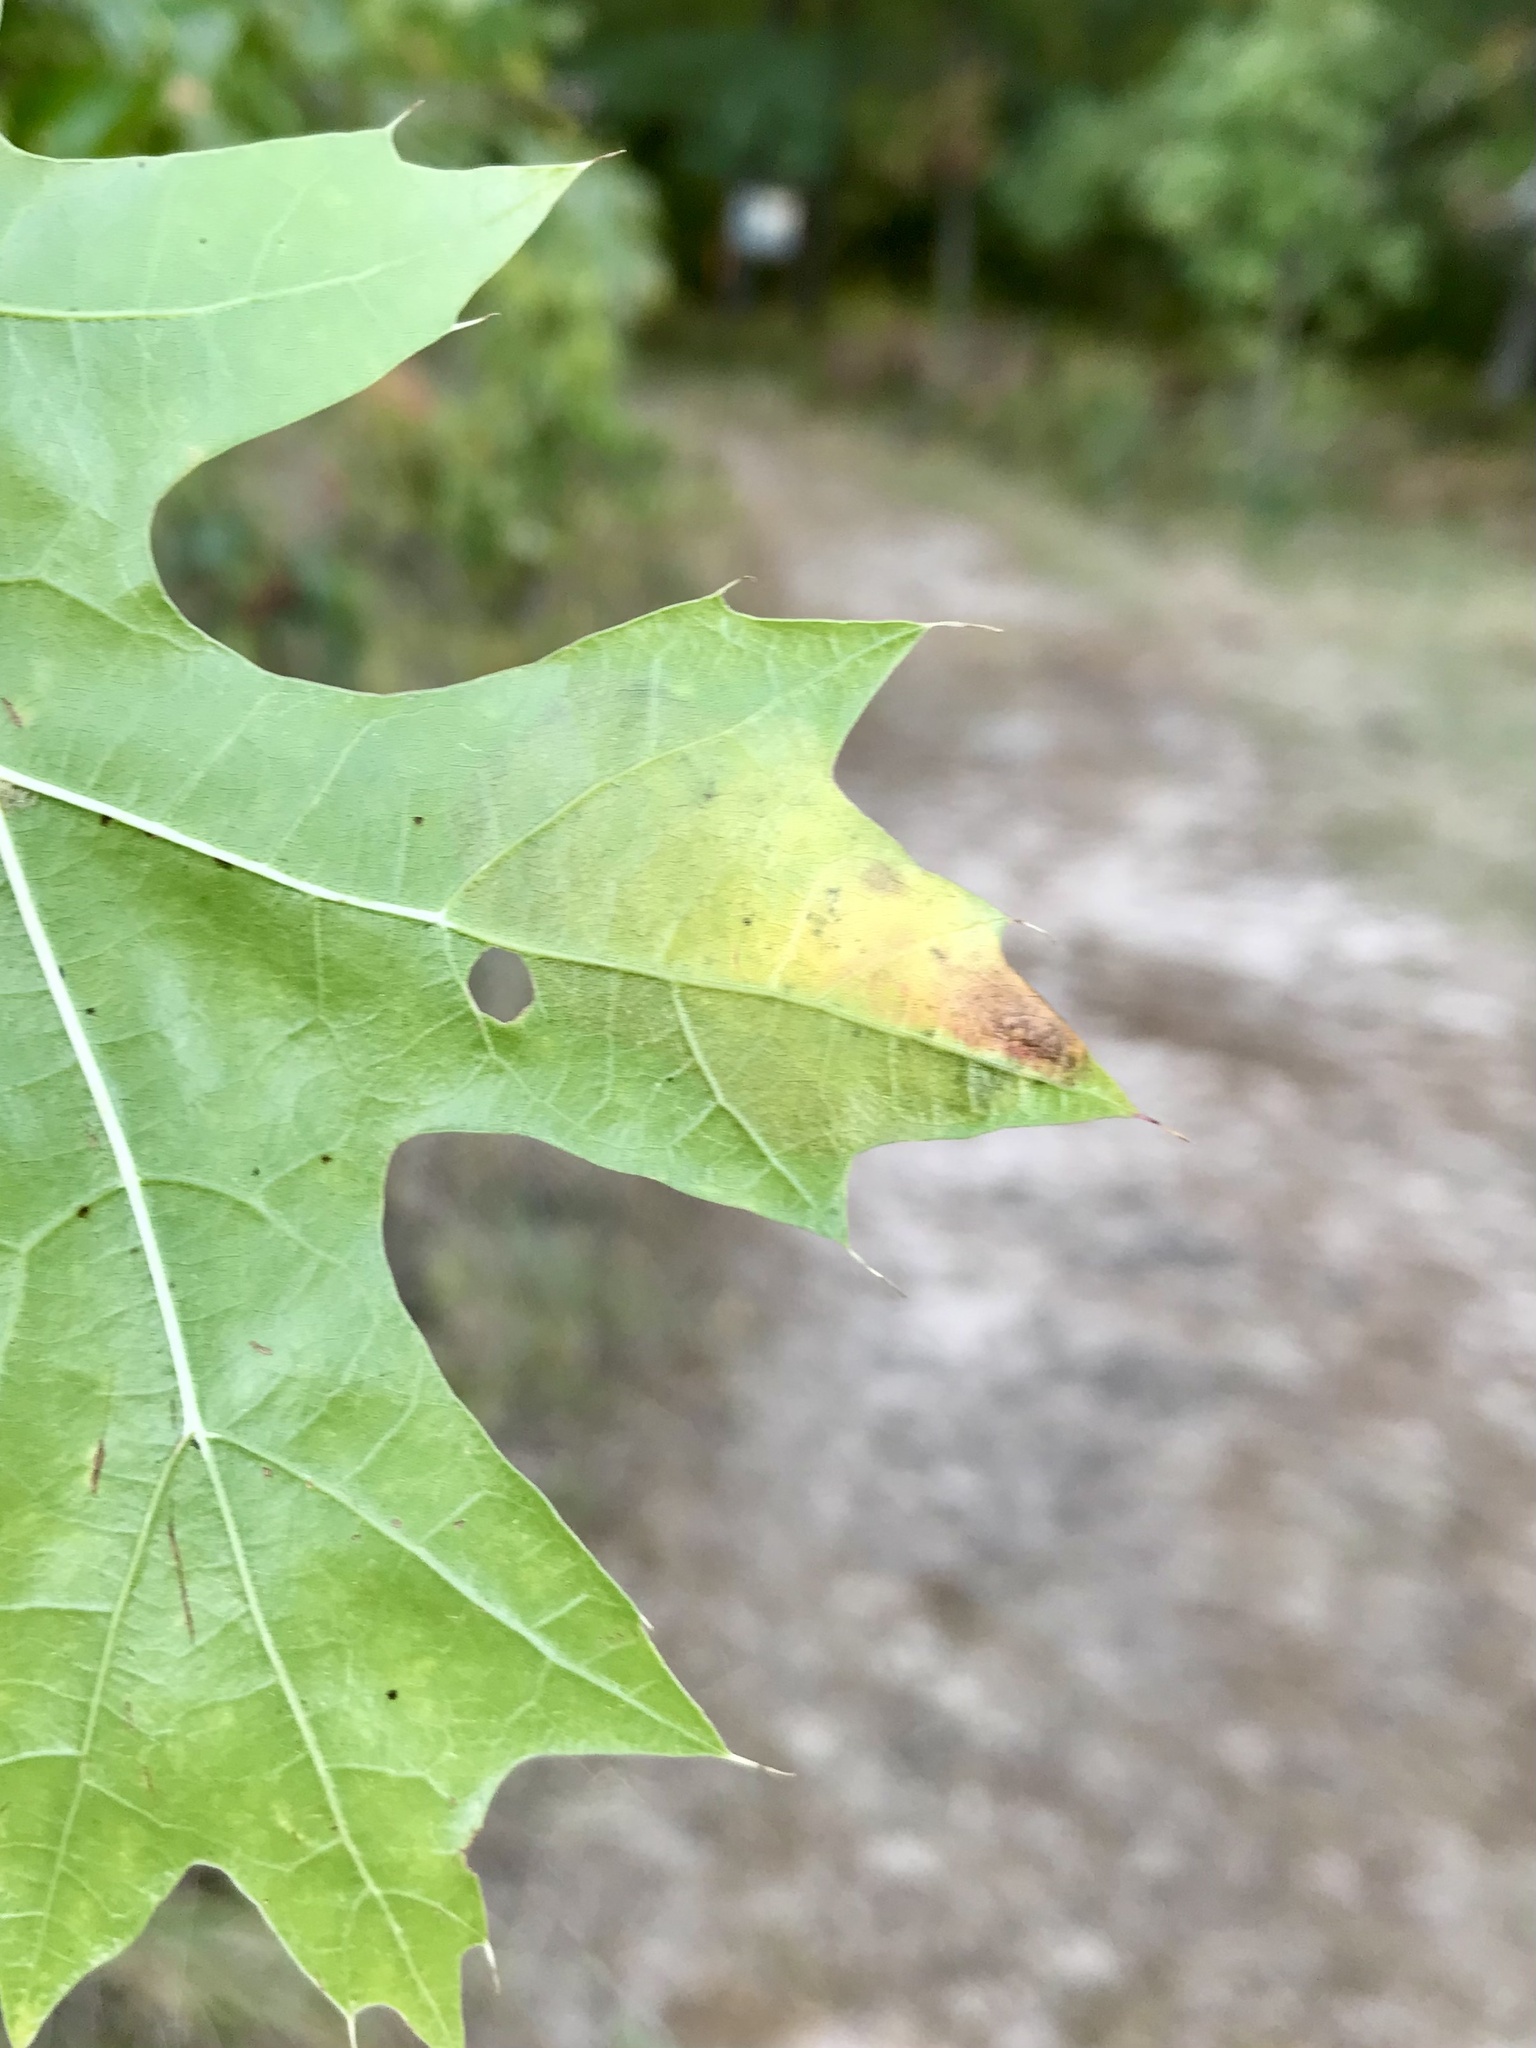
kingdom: Animalia
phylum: Arthropoda
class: Insecta
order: Hymenoptera
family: Tenthredinidae
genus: Profenusa
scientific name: Profenusa
